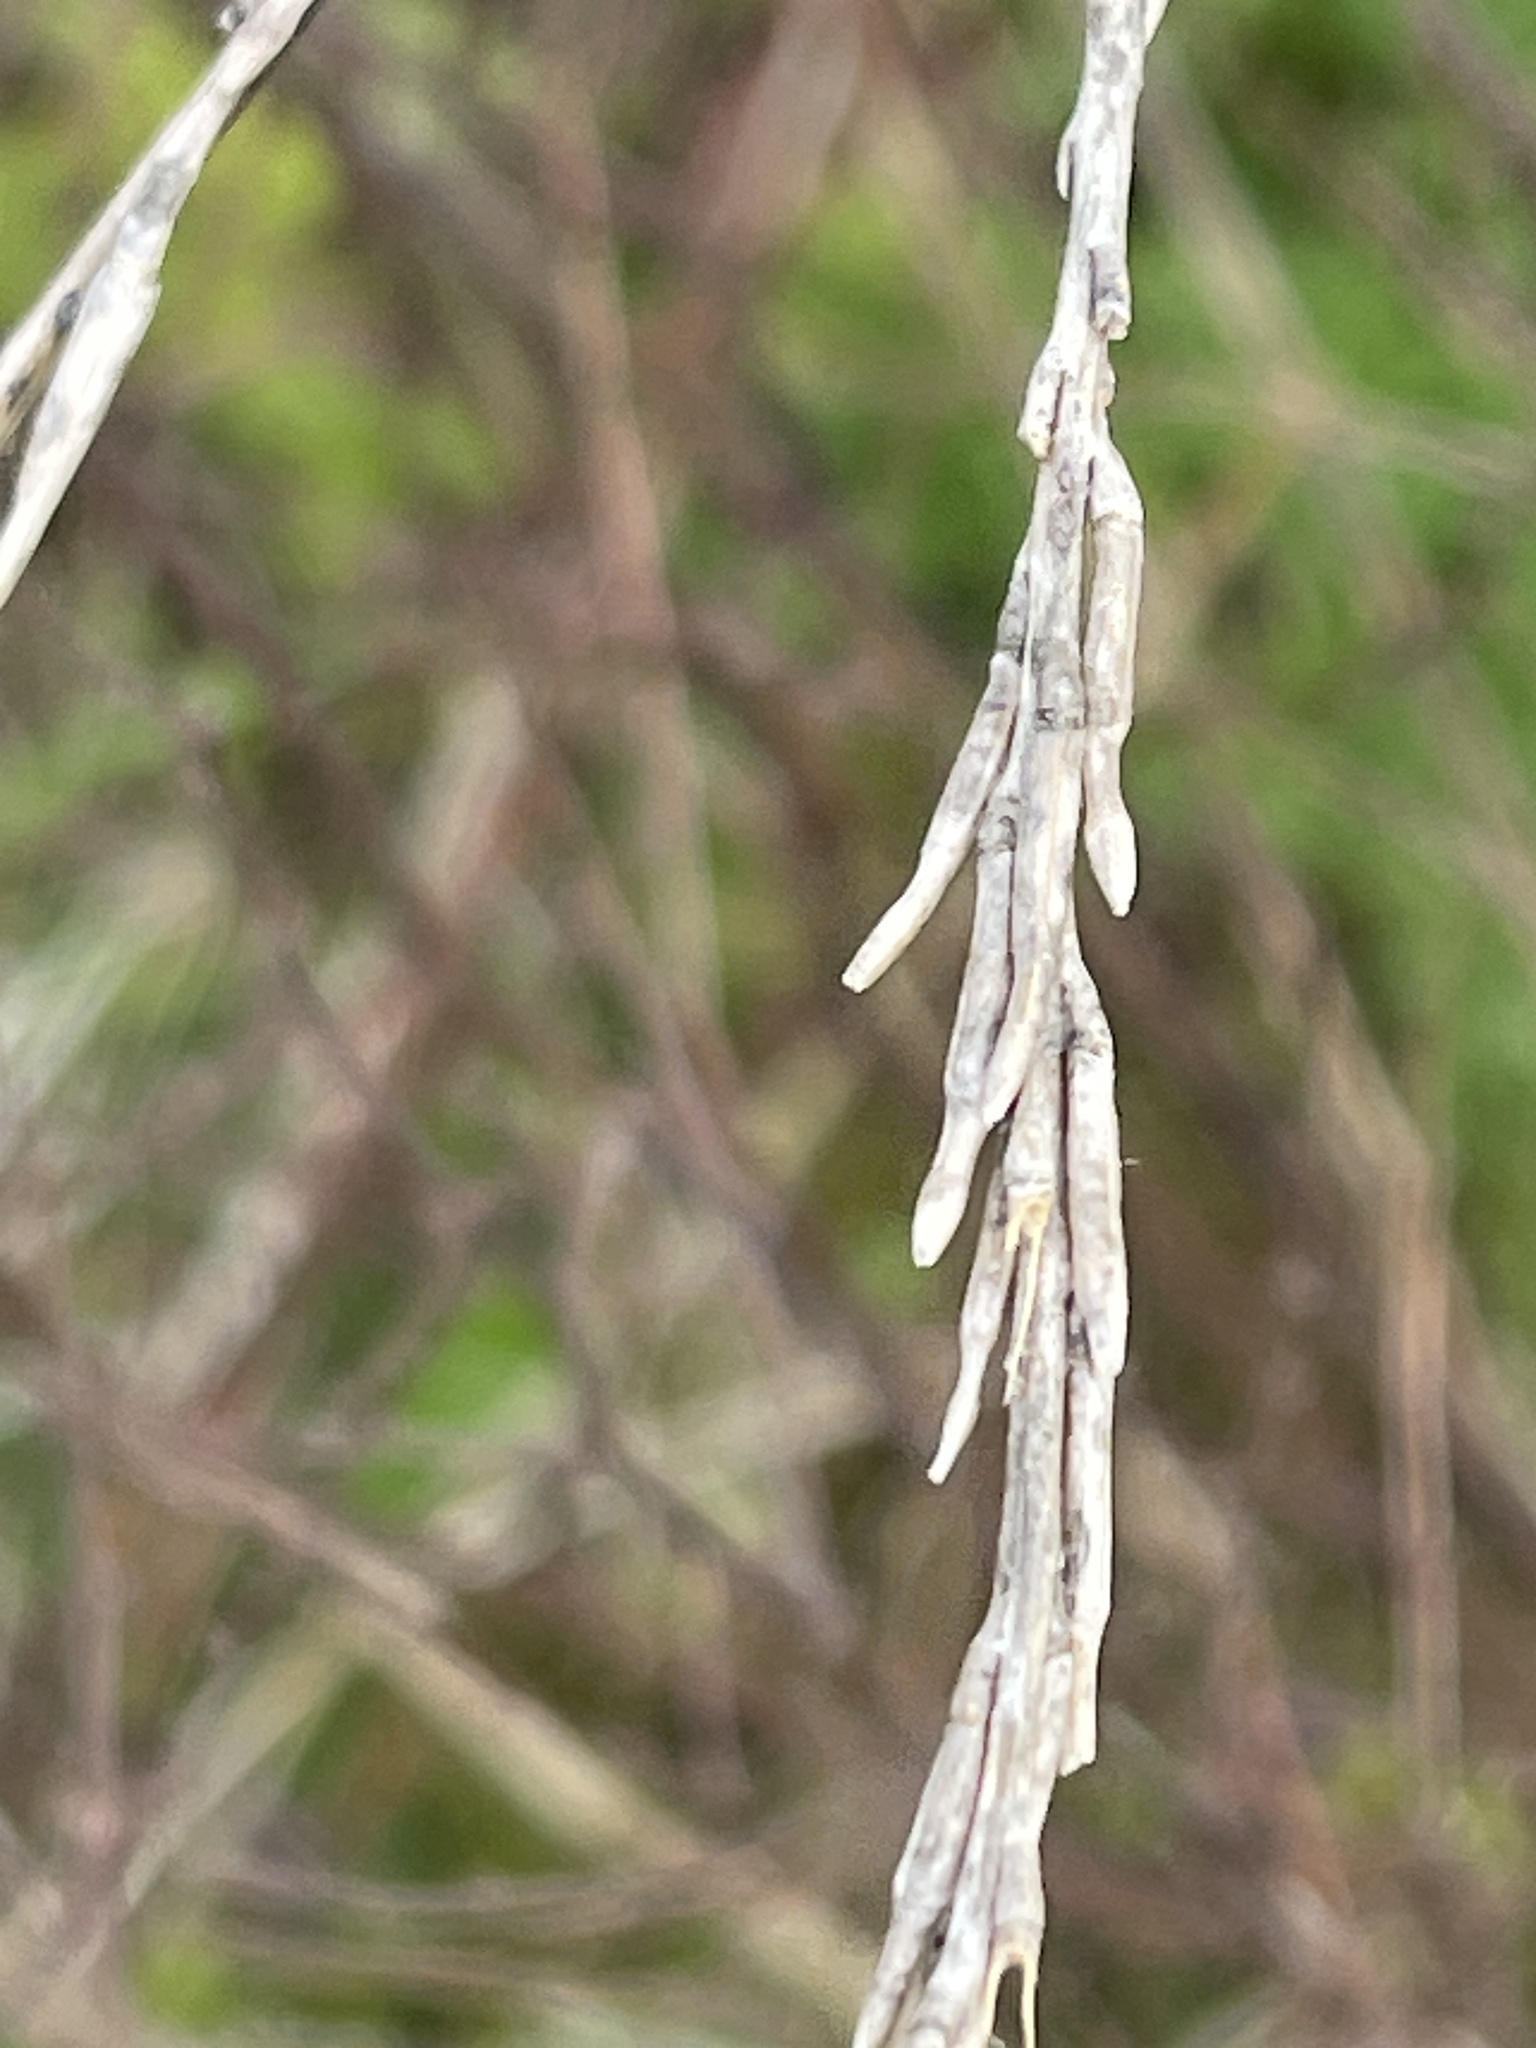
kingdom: Plantae
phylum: Tracheophyta
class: Magnoliopsida
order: Brassicales
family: Brassicaceae
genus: Hirschfeldia
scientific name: Hirschfeldia incana
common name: Hoary mustard
